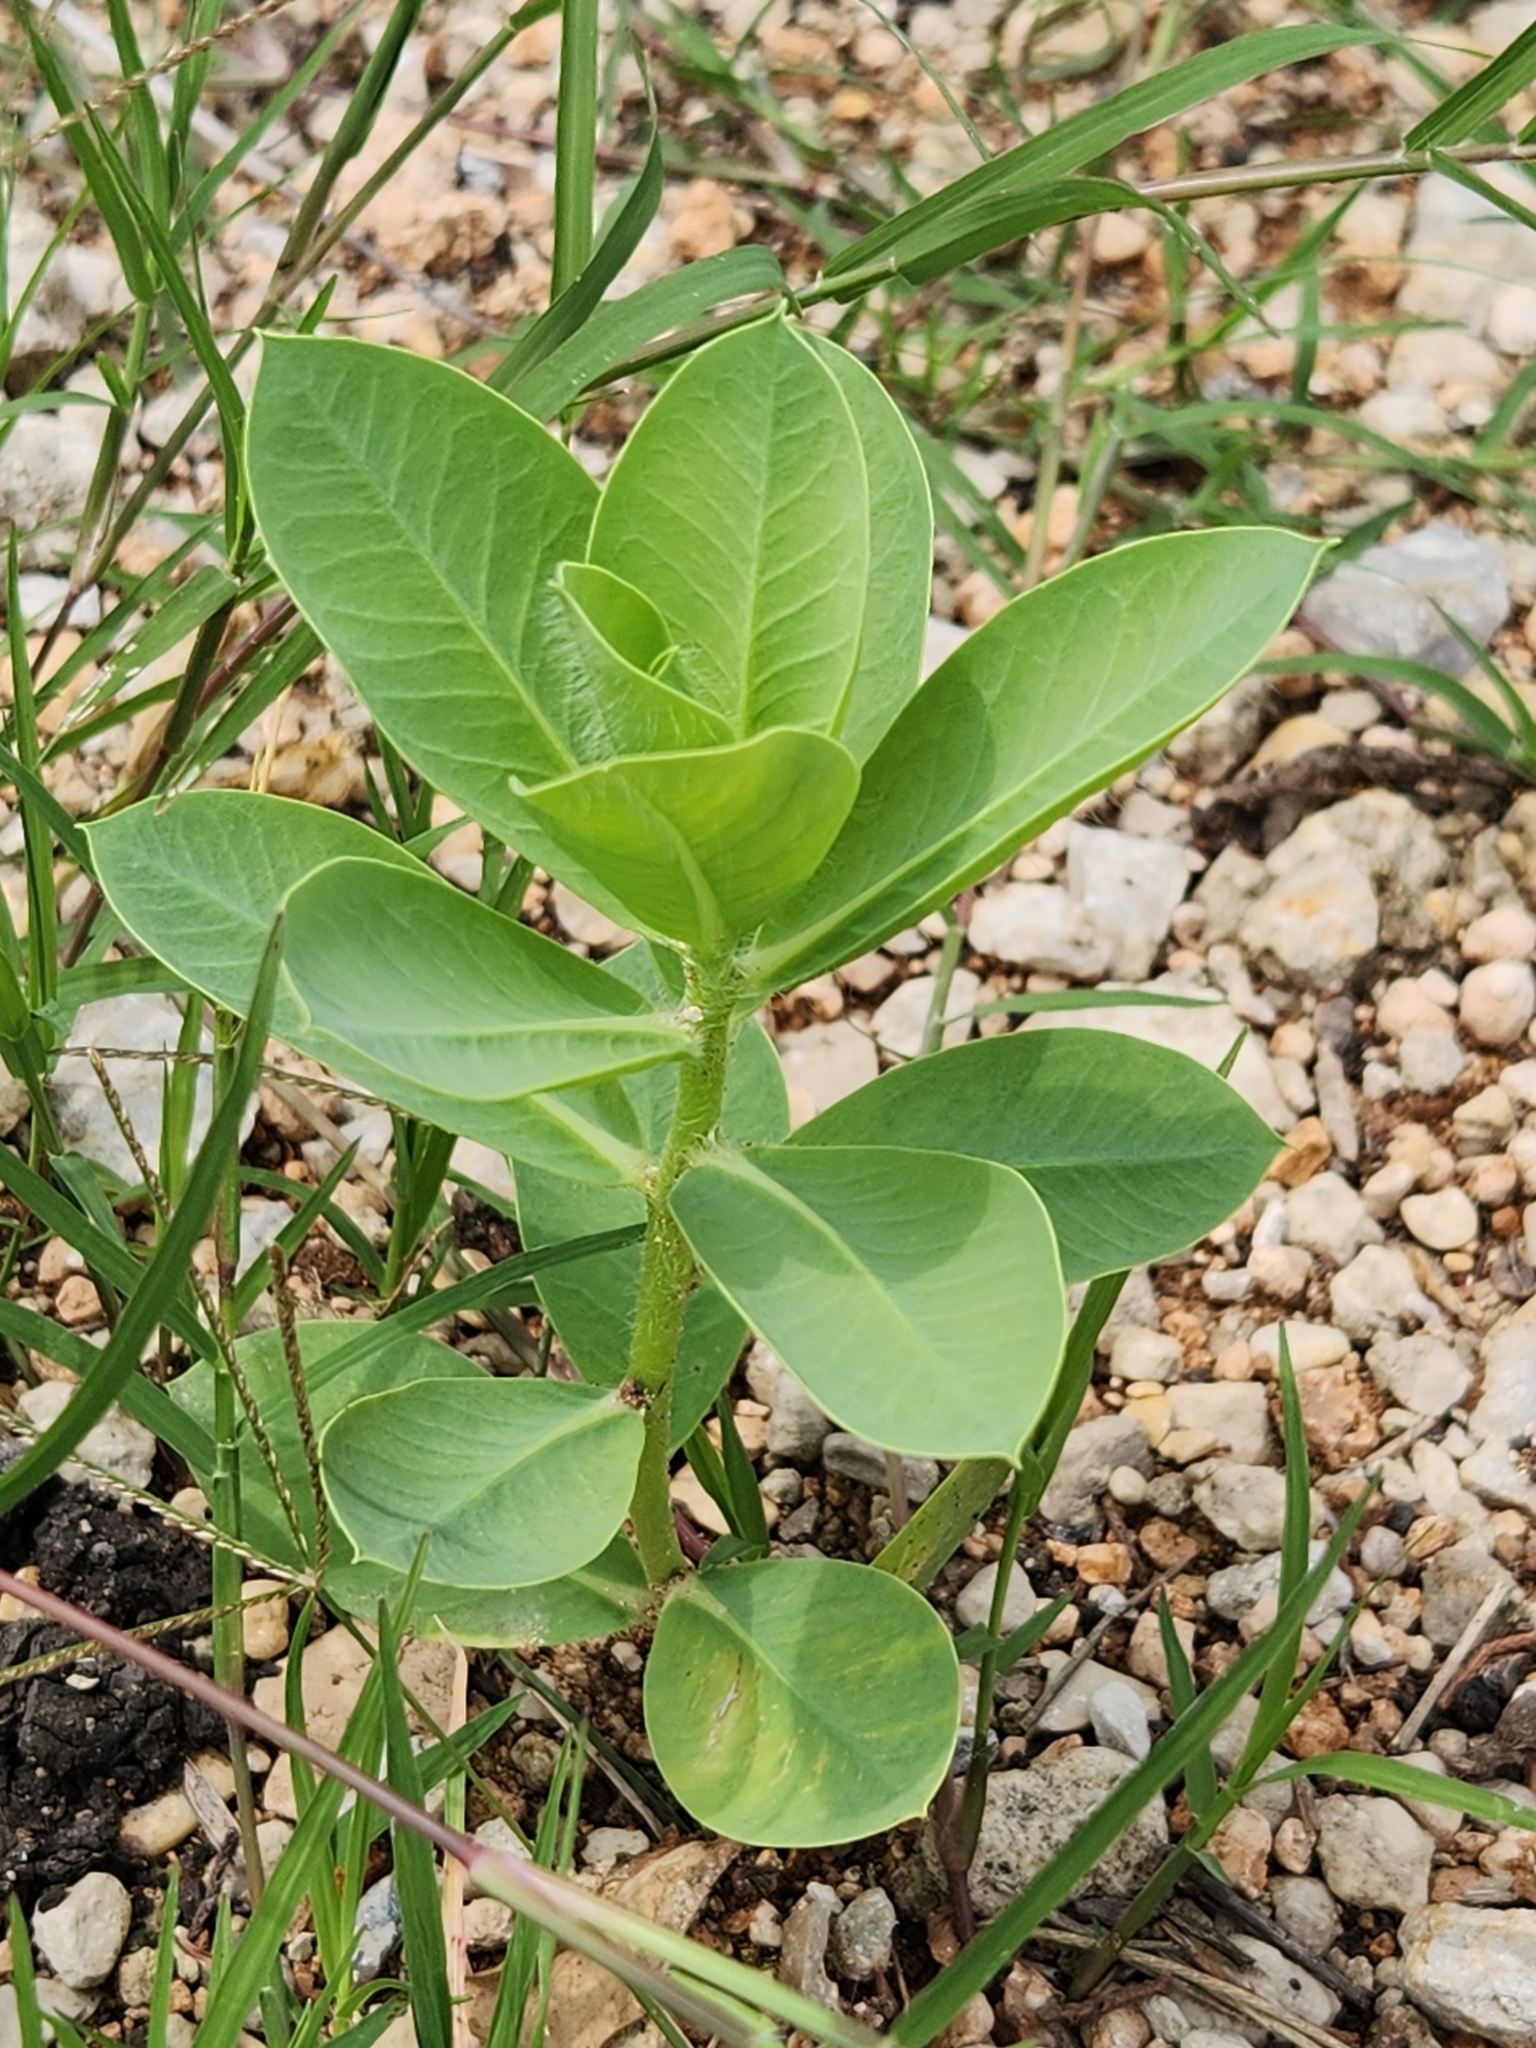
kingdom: Plantae
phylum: Tracheophyta
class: Magnoliopsida
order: Malpighiales
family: Euphorbiaceae
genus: Euphorbia
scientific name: Euphorbia marginata
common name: Ghostweed
